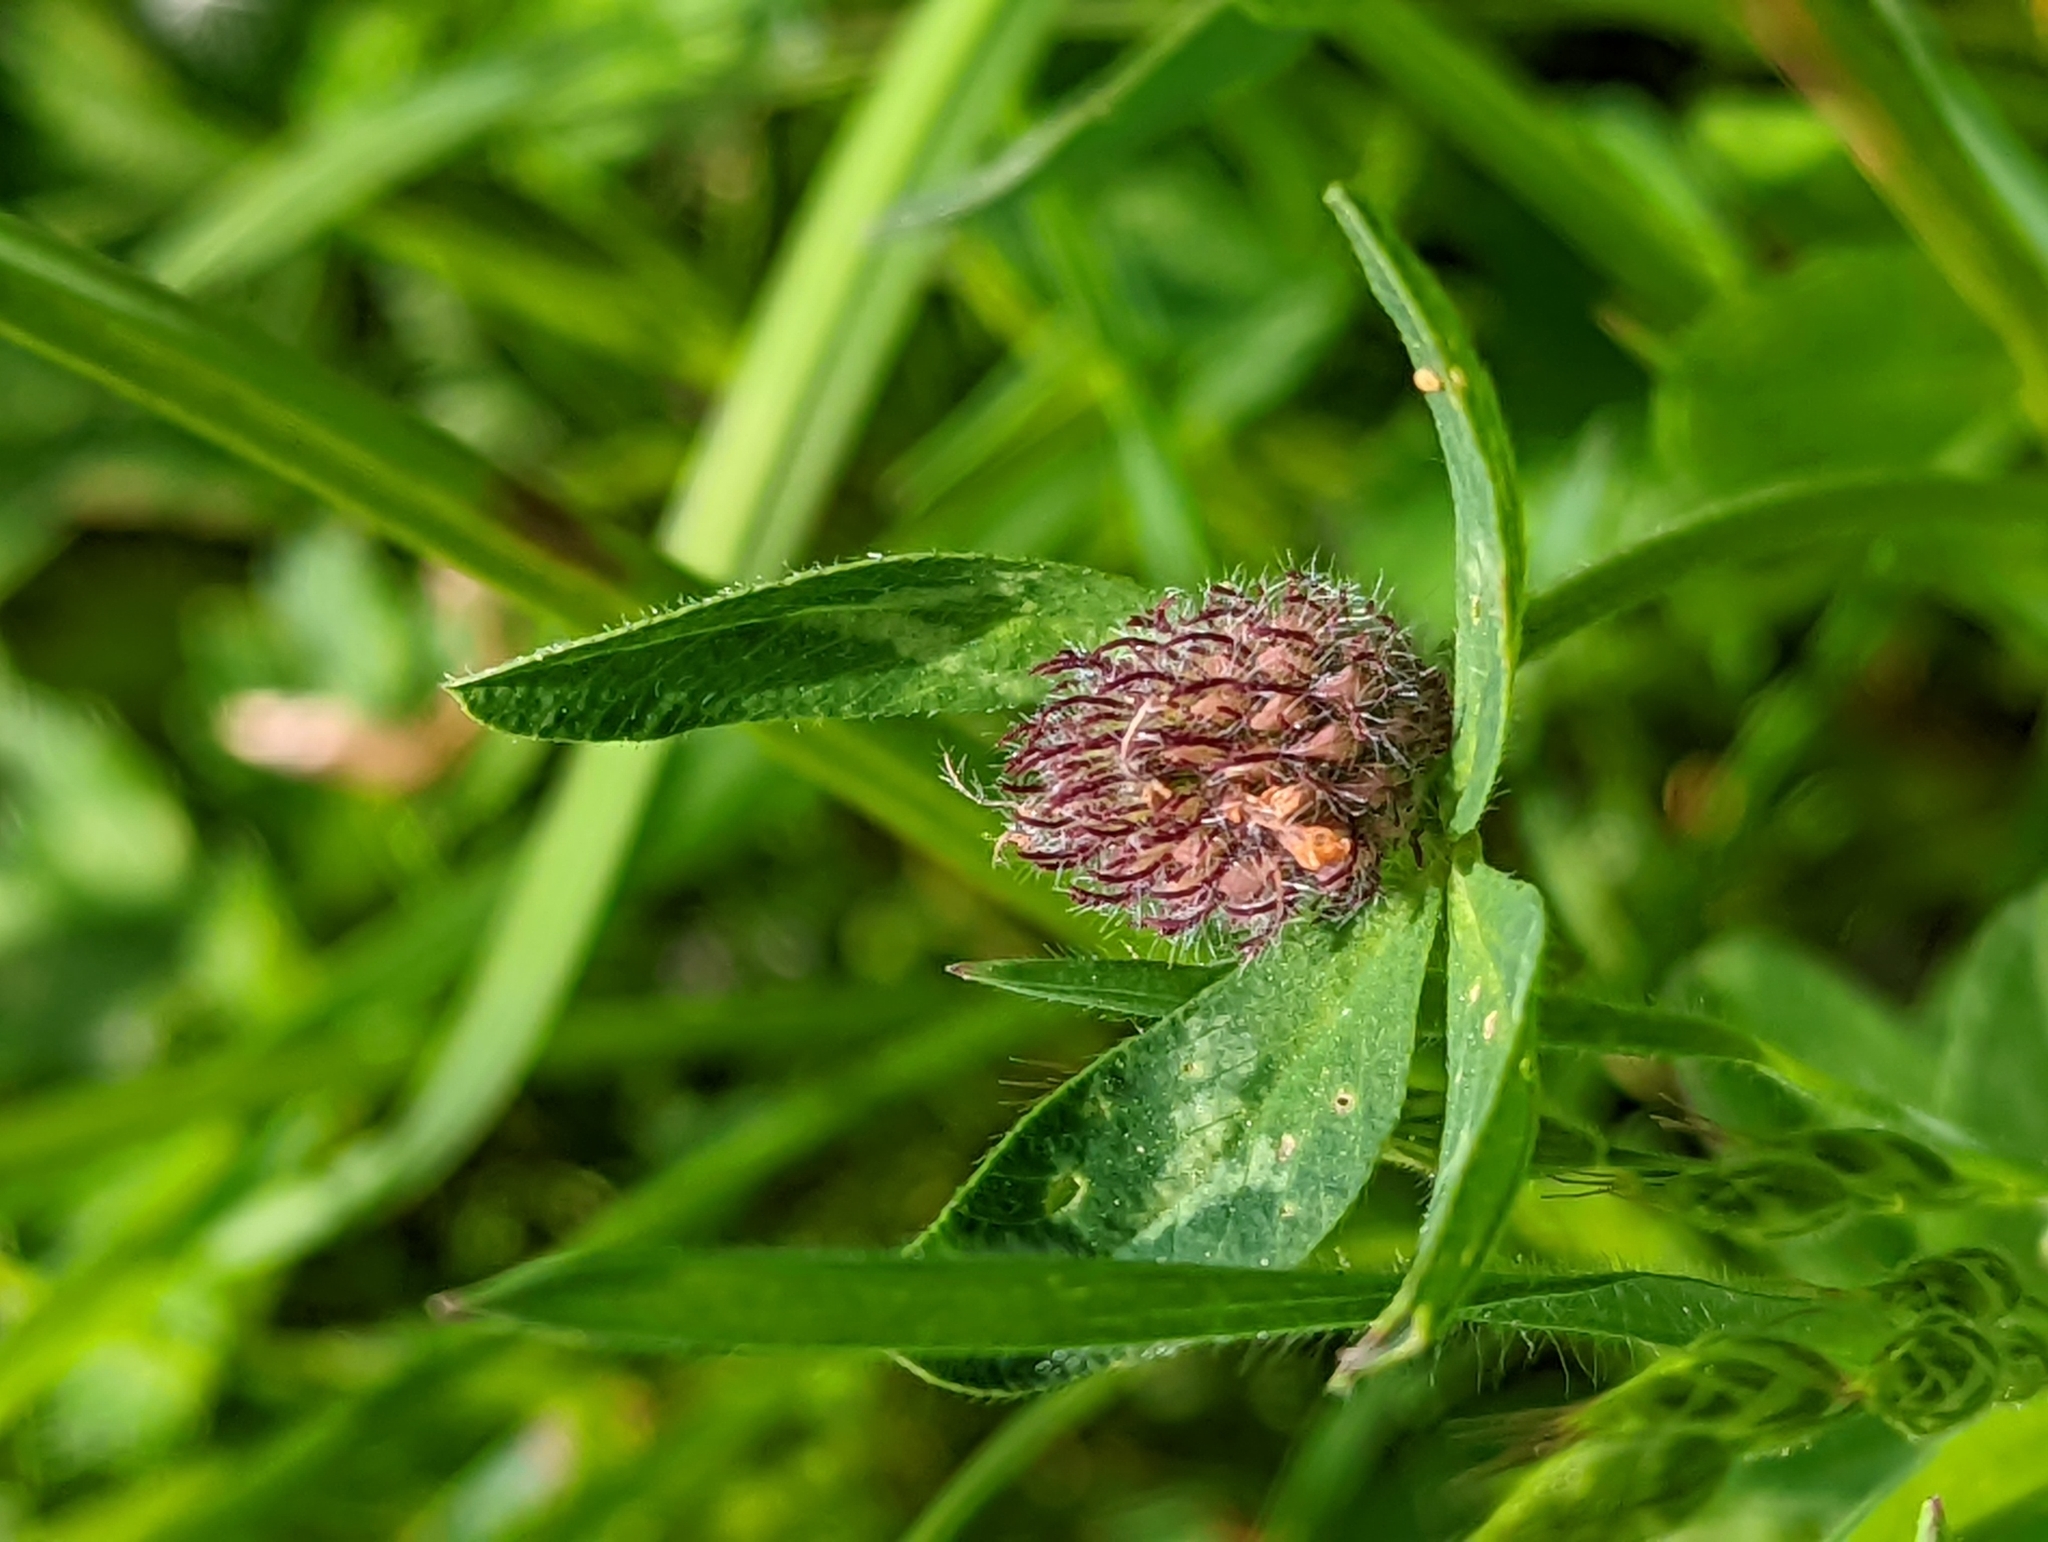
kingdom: Plantae
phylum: Tracheophyta
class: Magnoliopsida
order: Fabales
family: Fabaceae
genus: Trifolium
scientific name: Trifolium pratense
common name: Red clover
